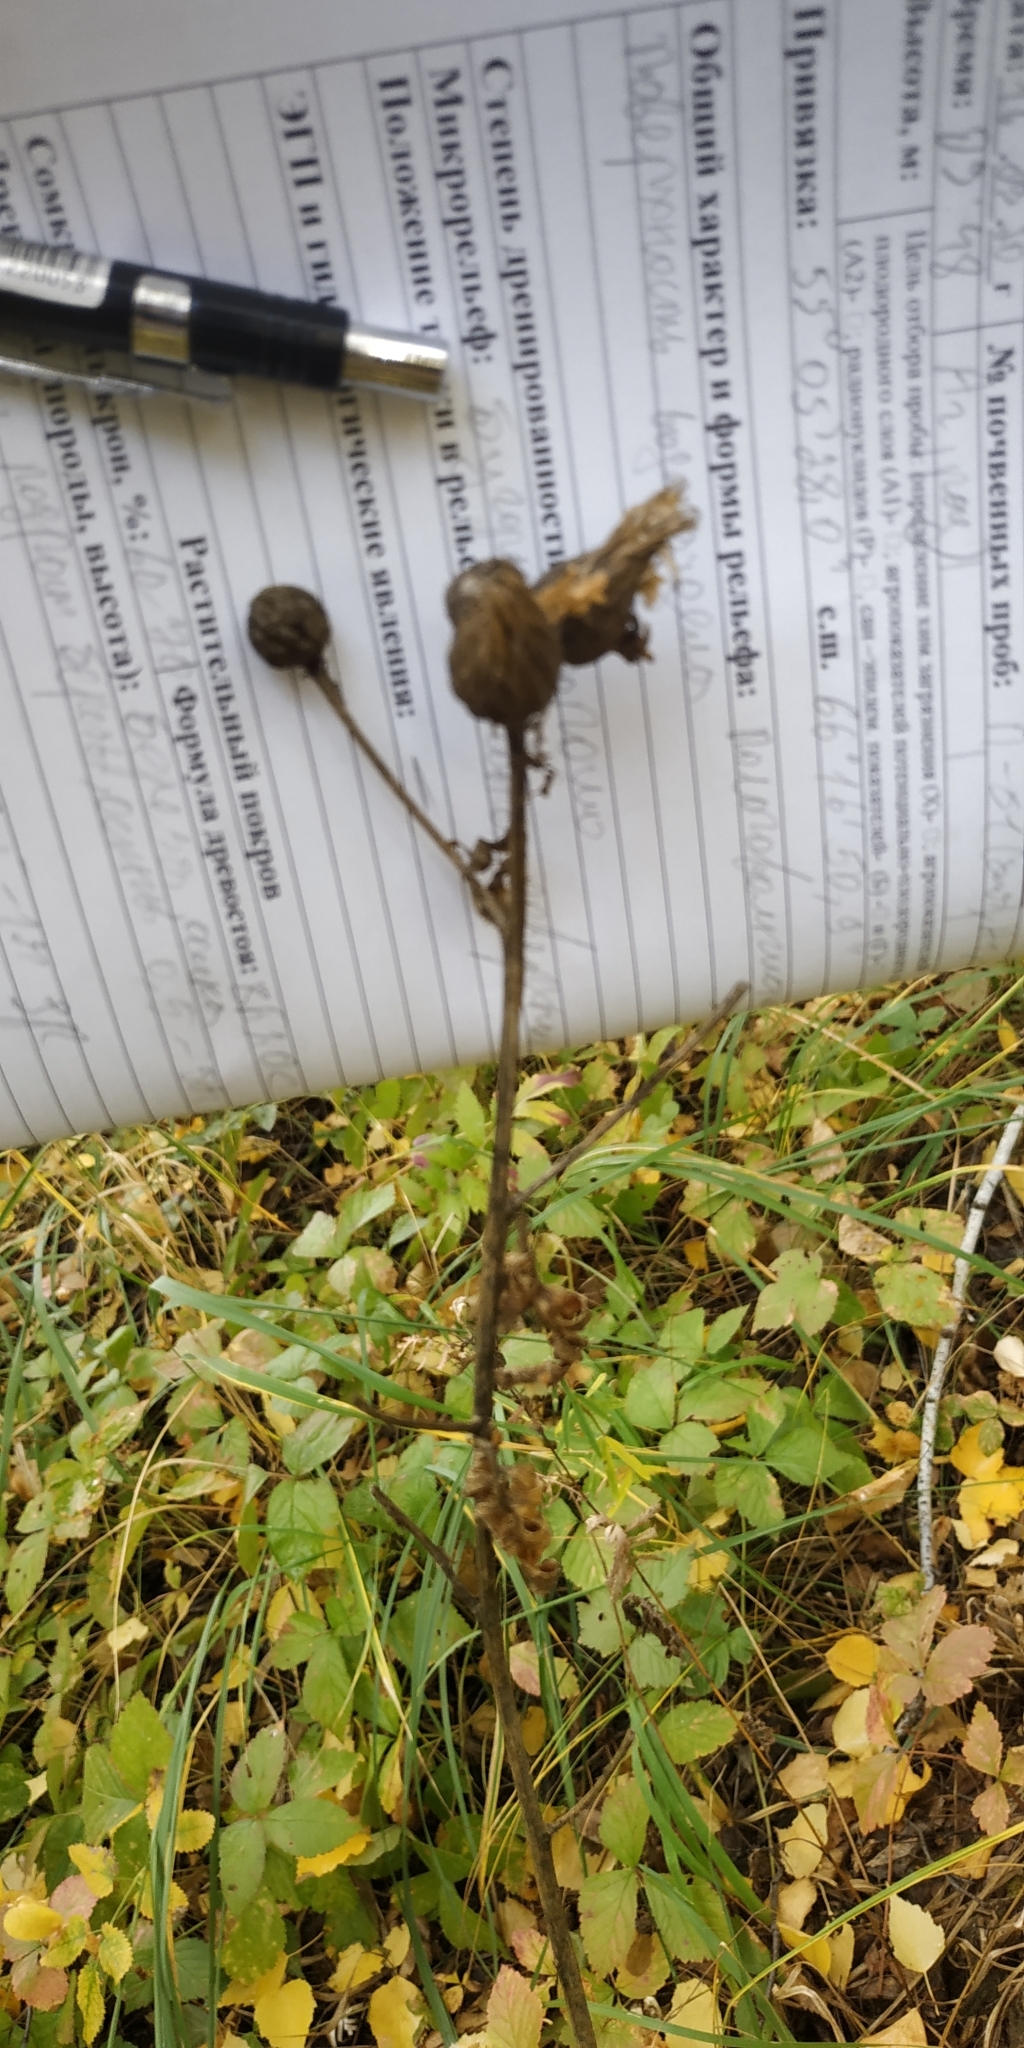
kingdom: Plantae
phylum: Tracheophyta
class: Magnoliopsida
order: Asterales
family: Asteraceae
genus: Serratula
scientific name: Serratula coronata
